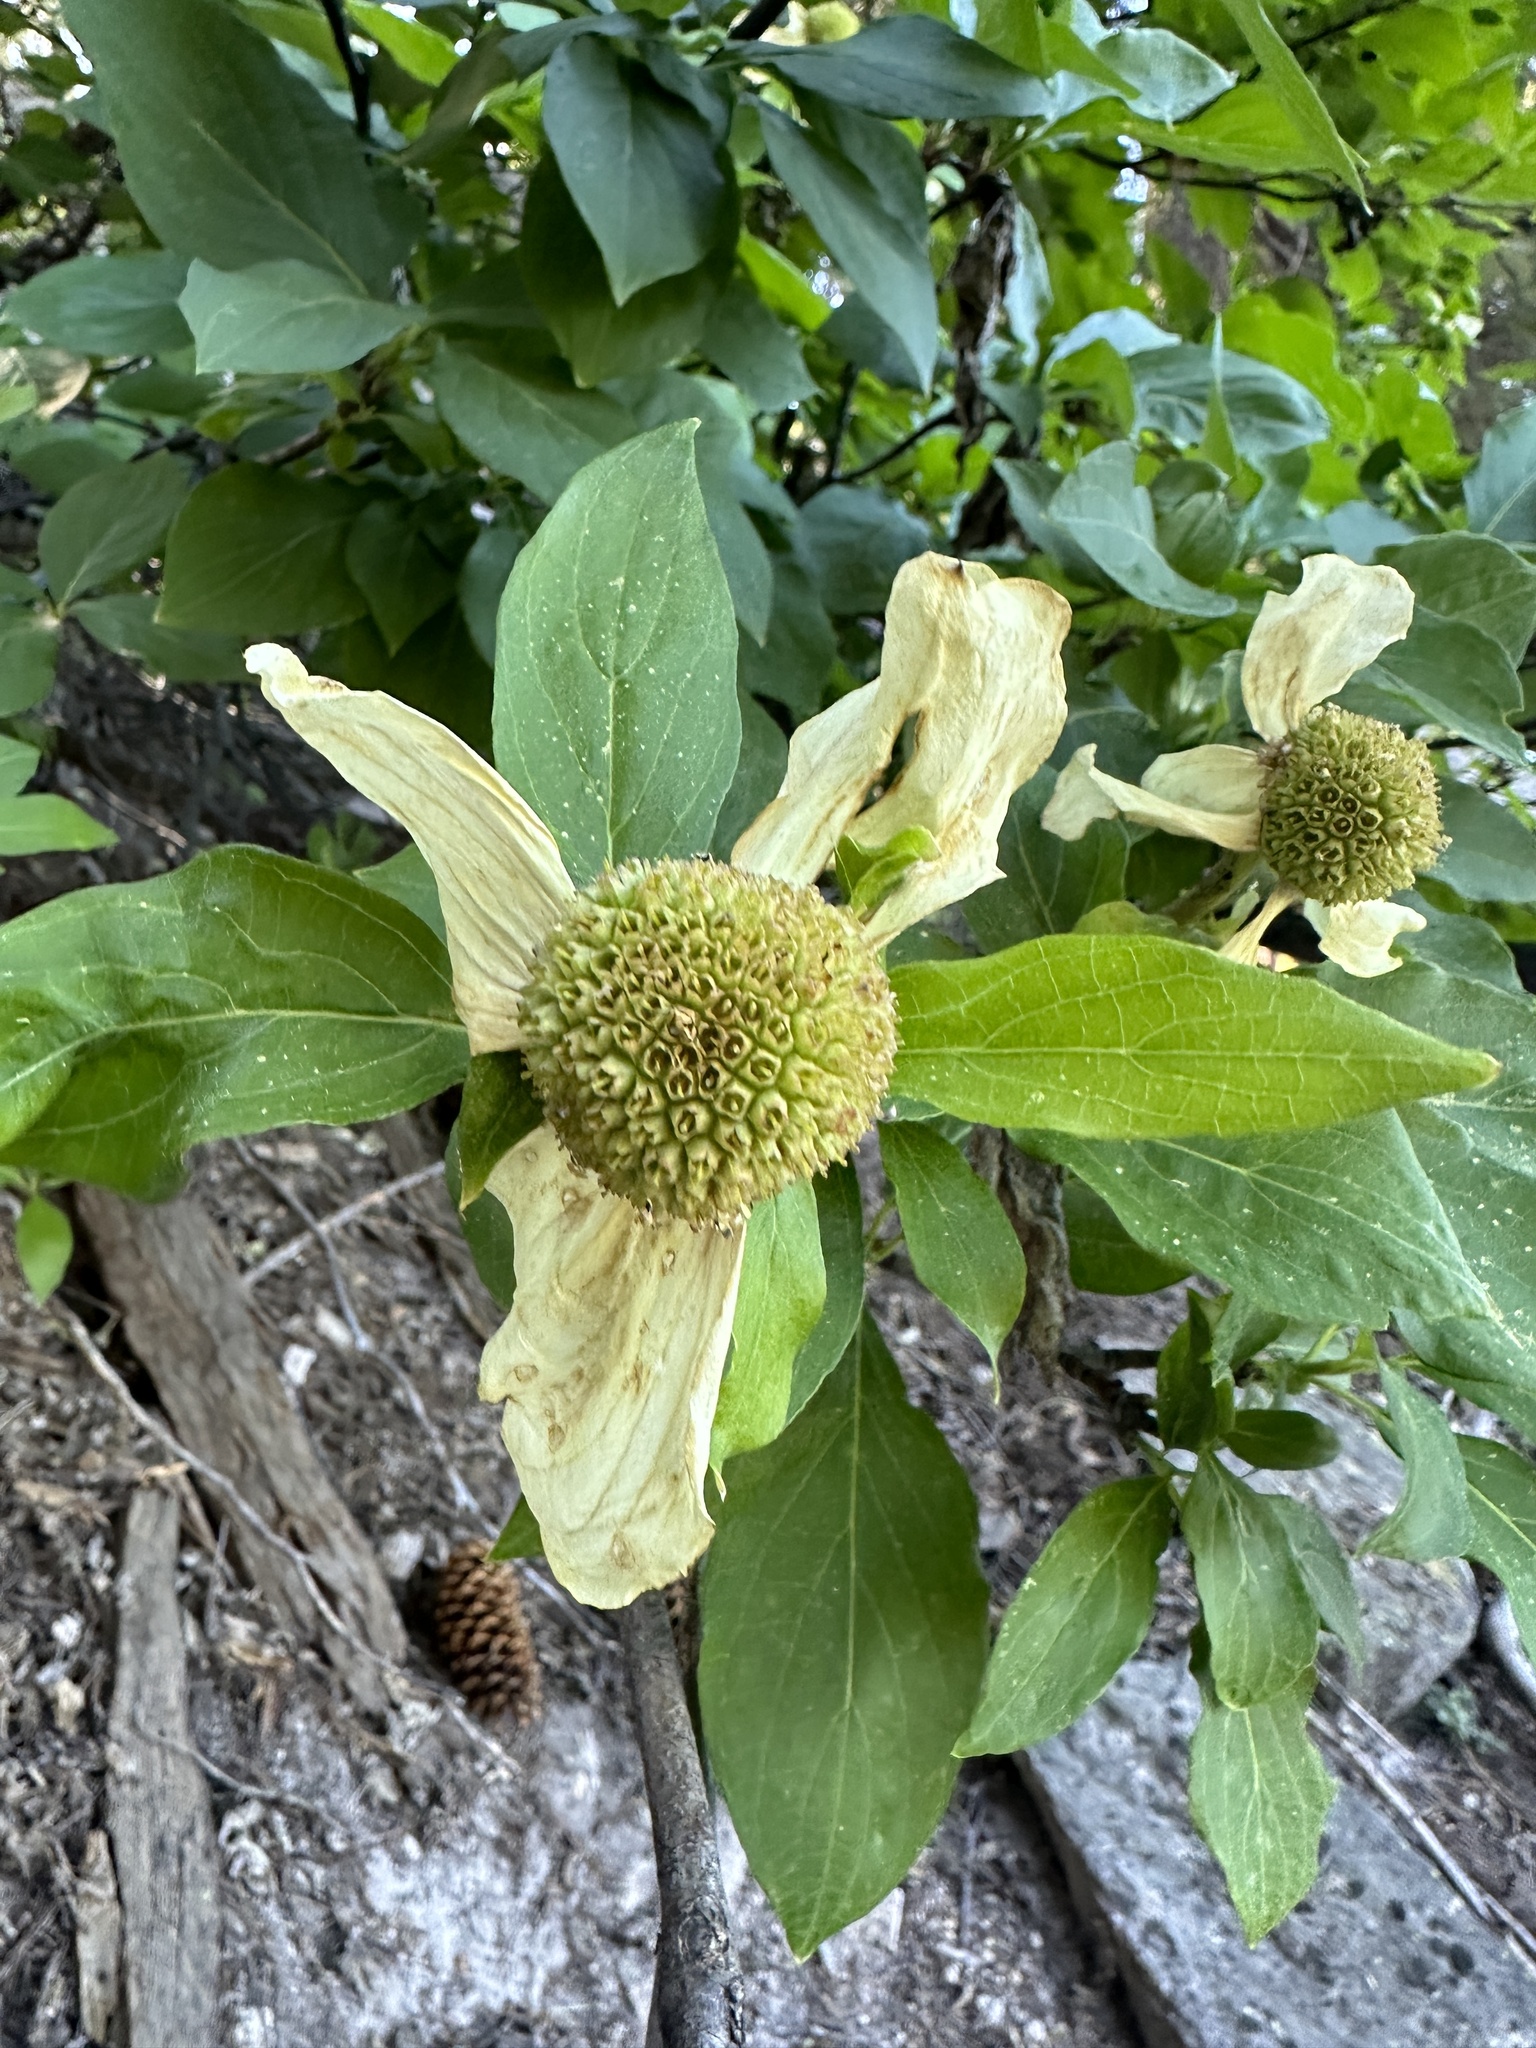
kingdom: Plantae
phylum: Tracheophyta
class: Magnoliopsida
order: Cornales
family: Cornaceae
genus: Cornus
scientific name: Cornus nuttallii
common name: Pacific dogwood
